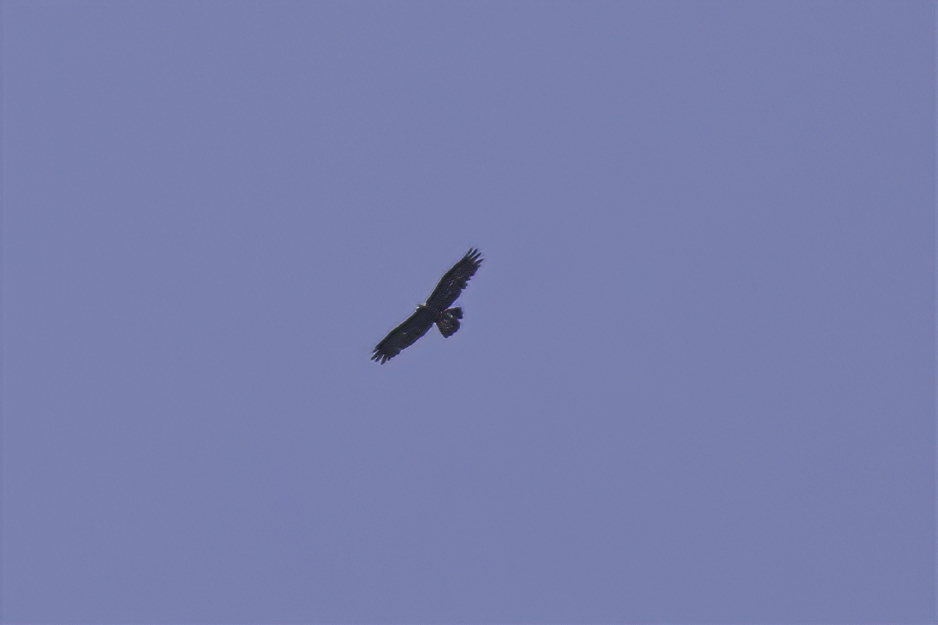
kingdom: Animalia
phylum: Chordata
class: Aves
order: Accipitriformes
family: Accipitridae
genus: Aquila
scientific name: Aquila chrysaetos
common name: Golden eagle
